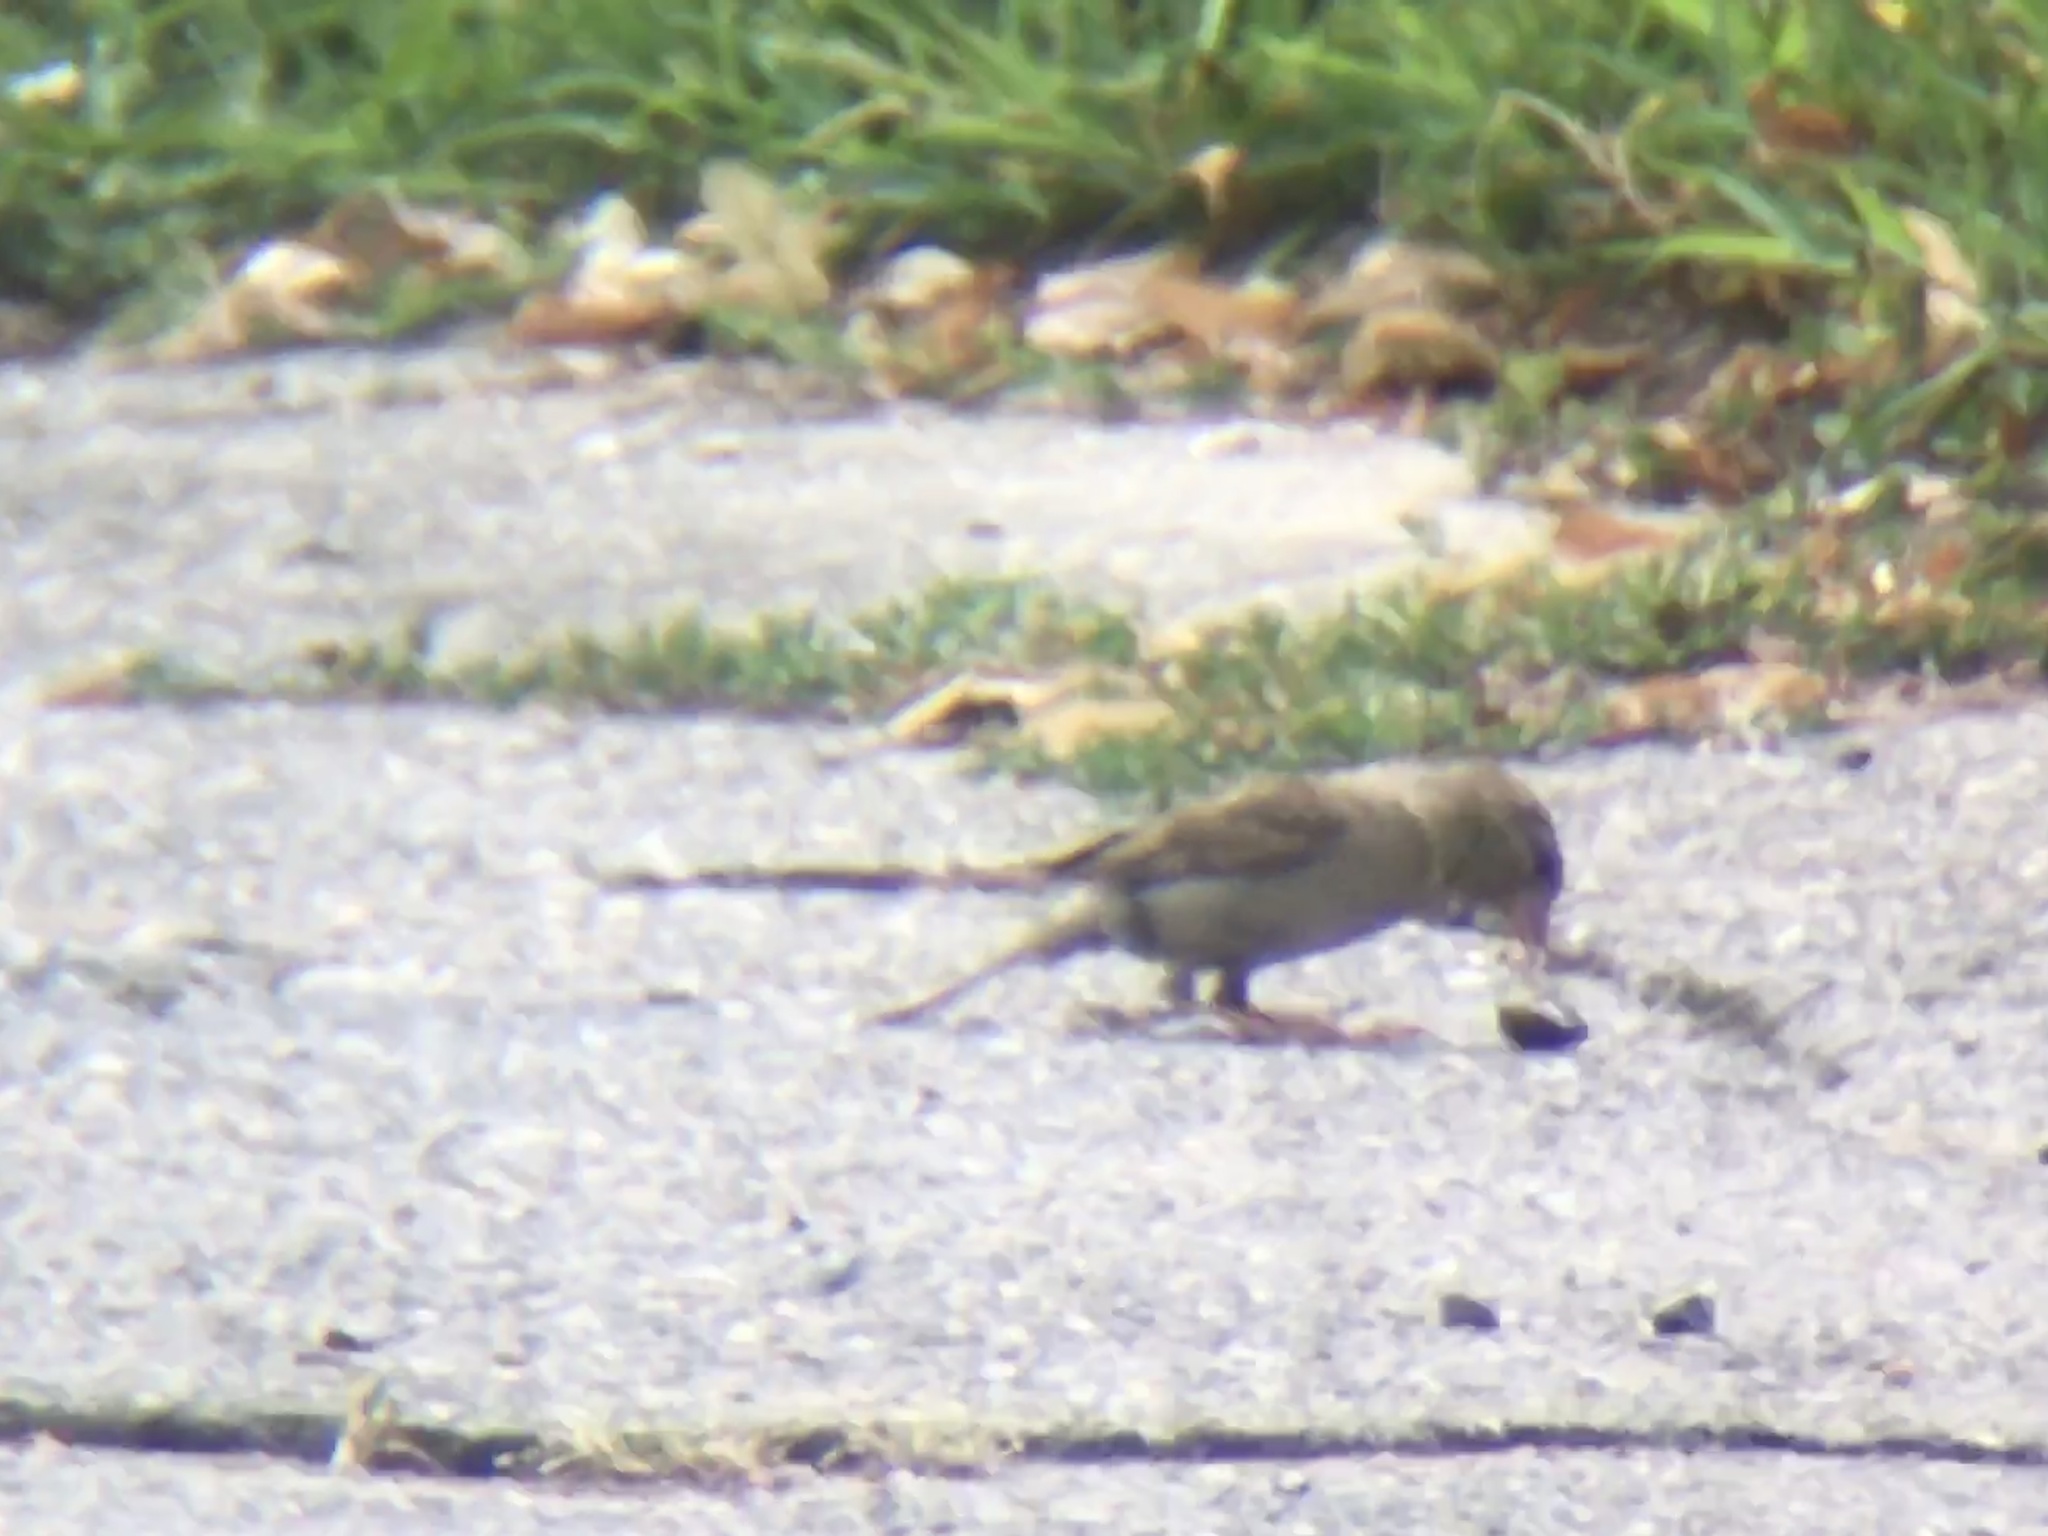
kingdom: Animalia
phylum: Chordata
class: Aves
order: Passeriformes
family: Passeridae
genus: Passer
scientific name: Passer domesticus
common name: House sparrow
